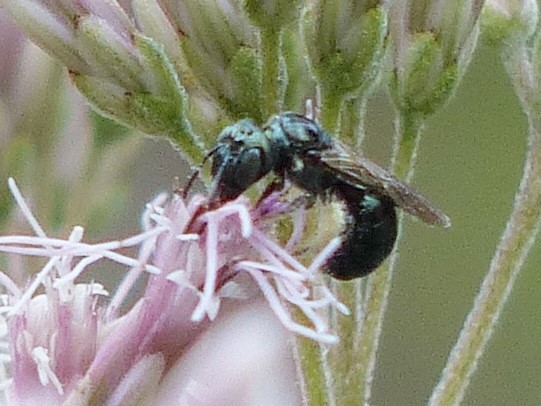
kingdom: Animalia
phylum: Arthropoda
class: Insecta
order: Hymenoptera
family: Apidae
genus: Zadontomerus
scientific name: Zadontomerus
